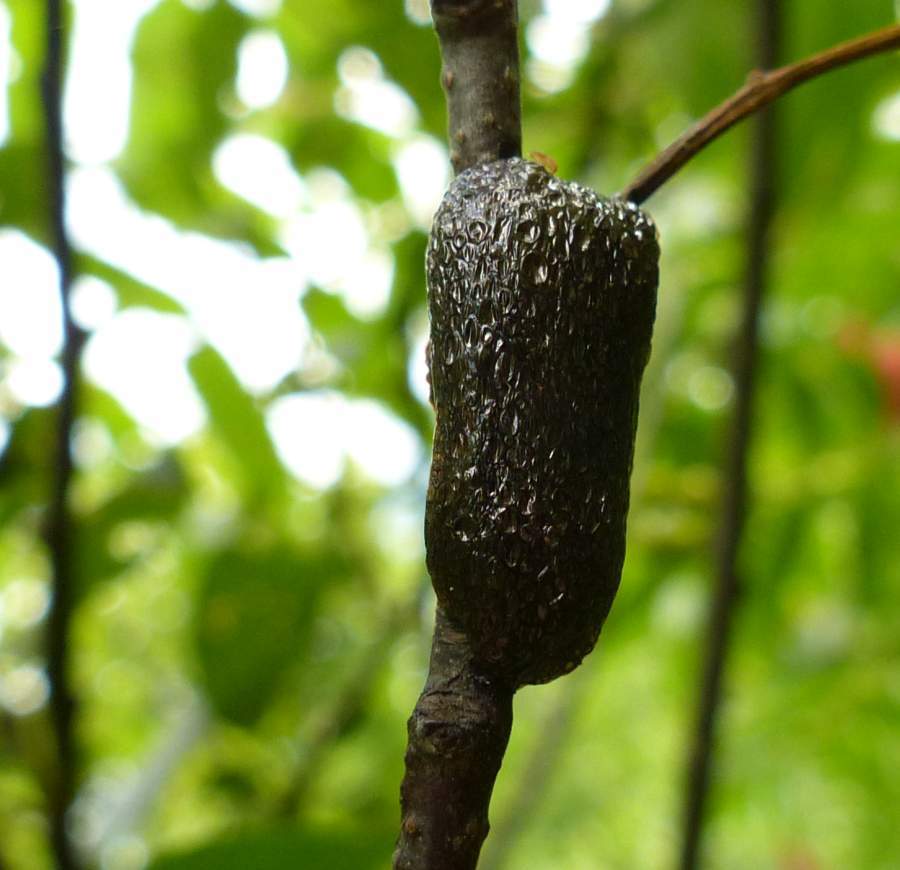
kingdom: Animalia
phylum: Arthropoda
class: Insecta
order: Lepidoptera
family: Lasiocampidae
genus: Malacosoma
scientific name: Malacosoma americana
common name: Eastern tent caterpillar moth
